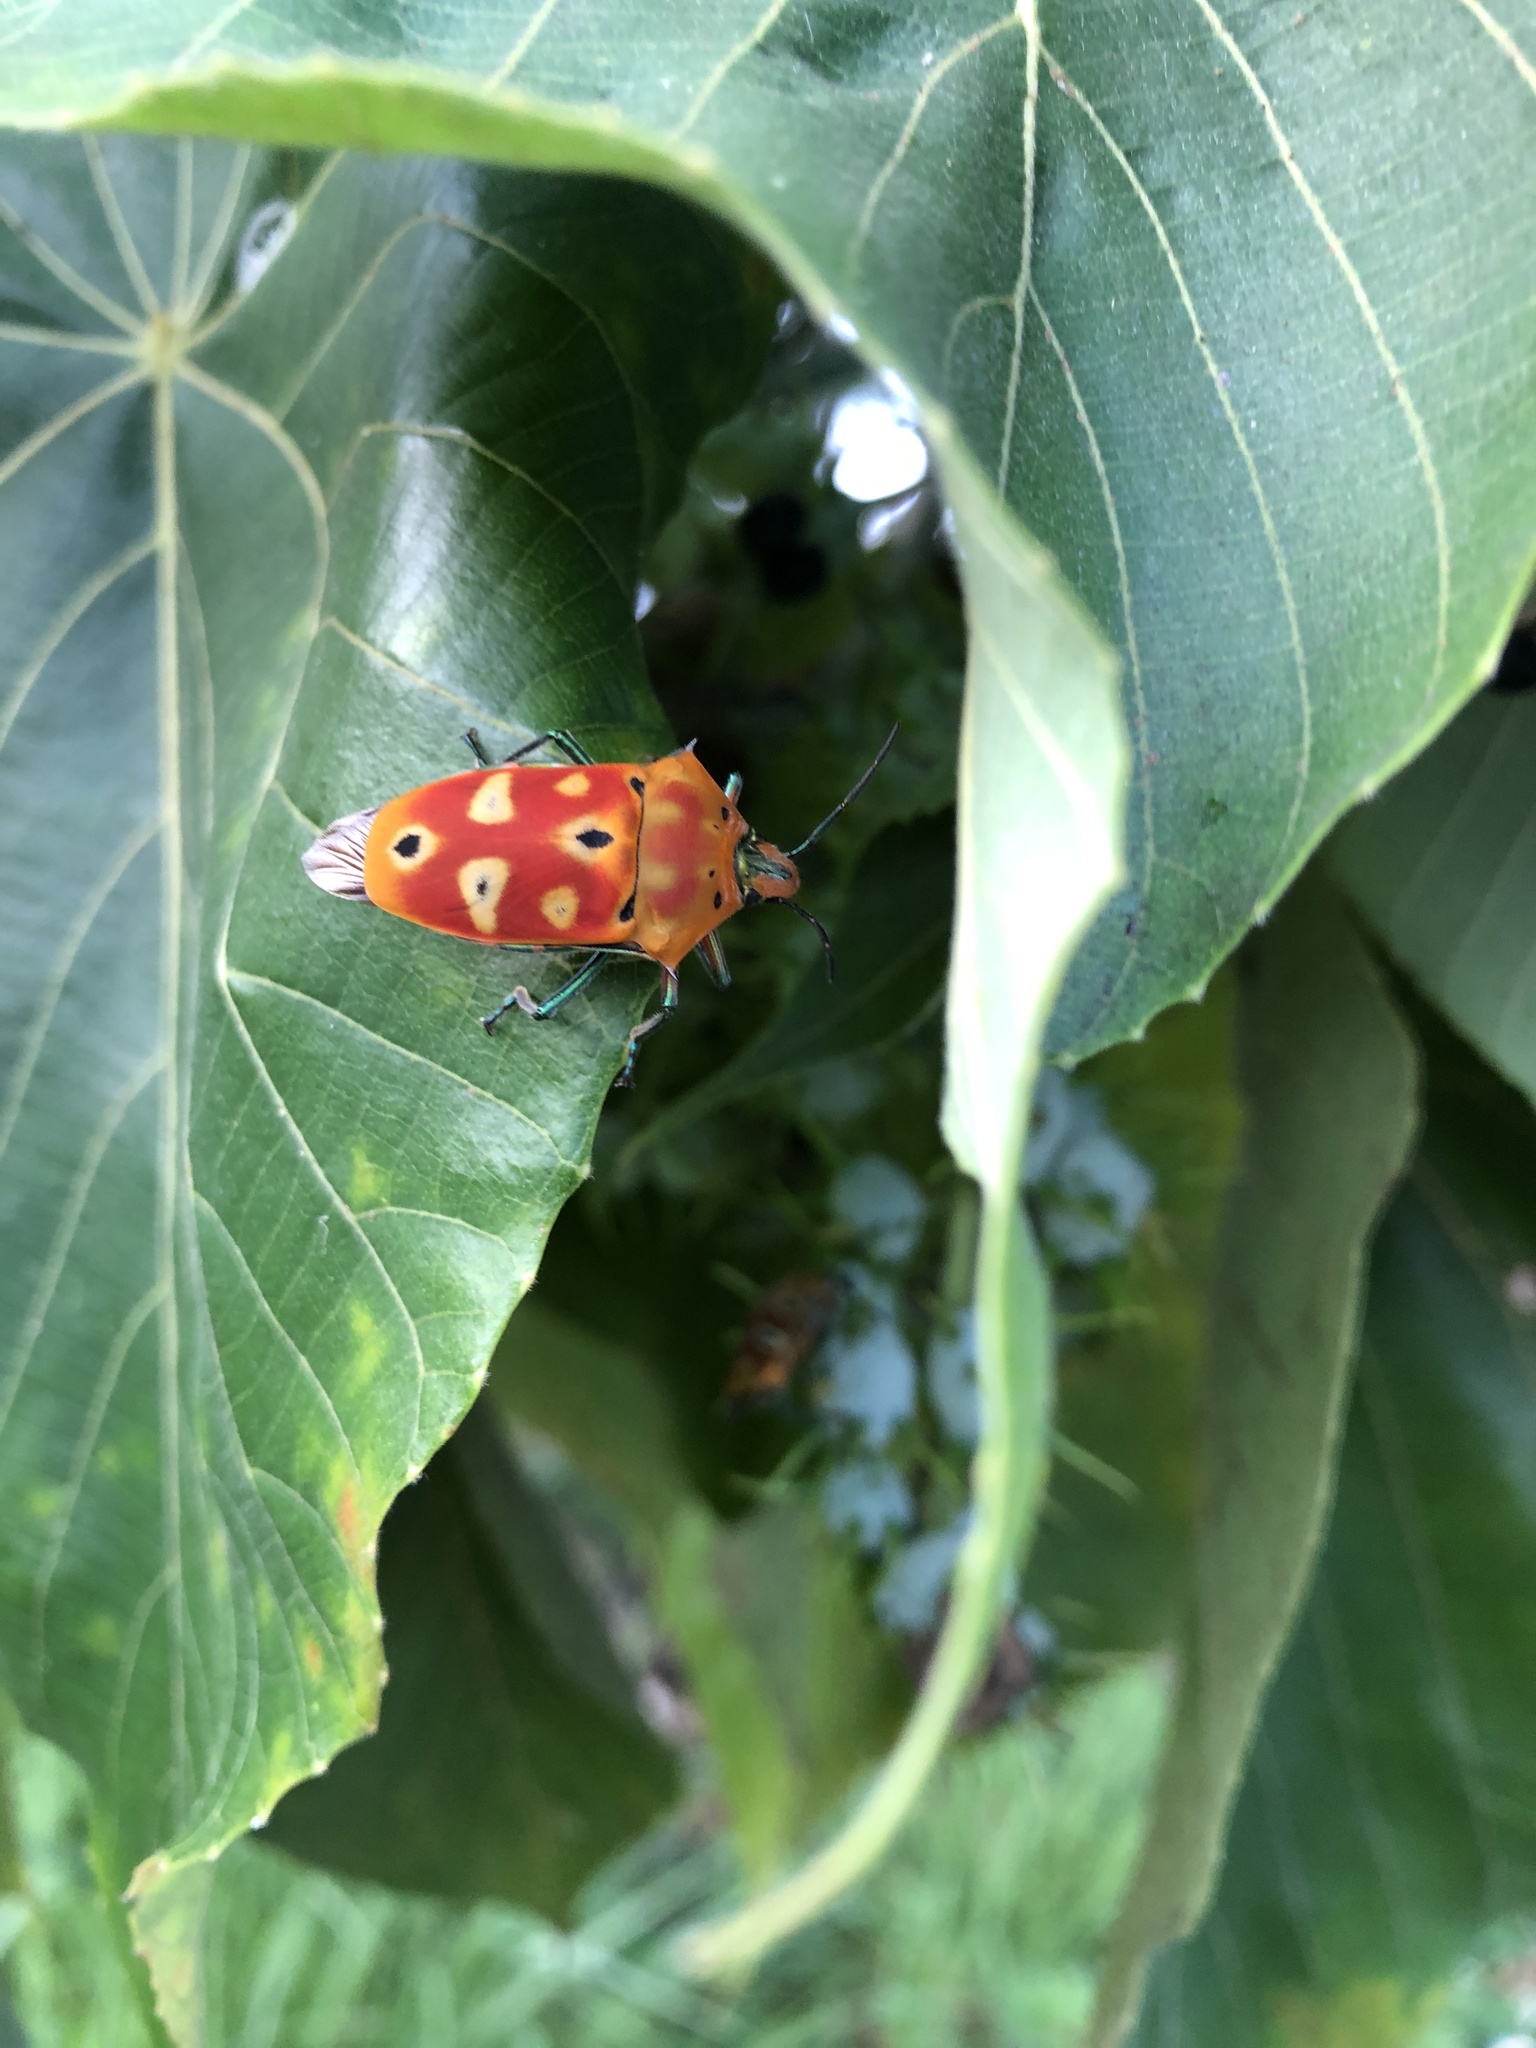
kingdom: Animalia
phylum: Arthropoda
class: Insecta
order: Hemiptera
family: Scutelleridae
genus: Cantao
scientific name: Cantao ocellatus
